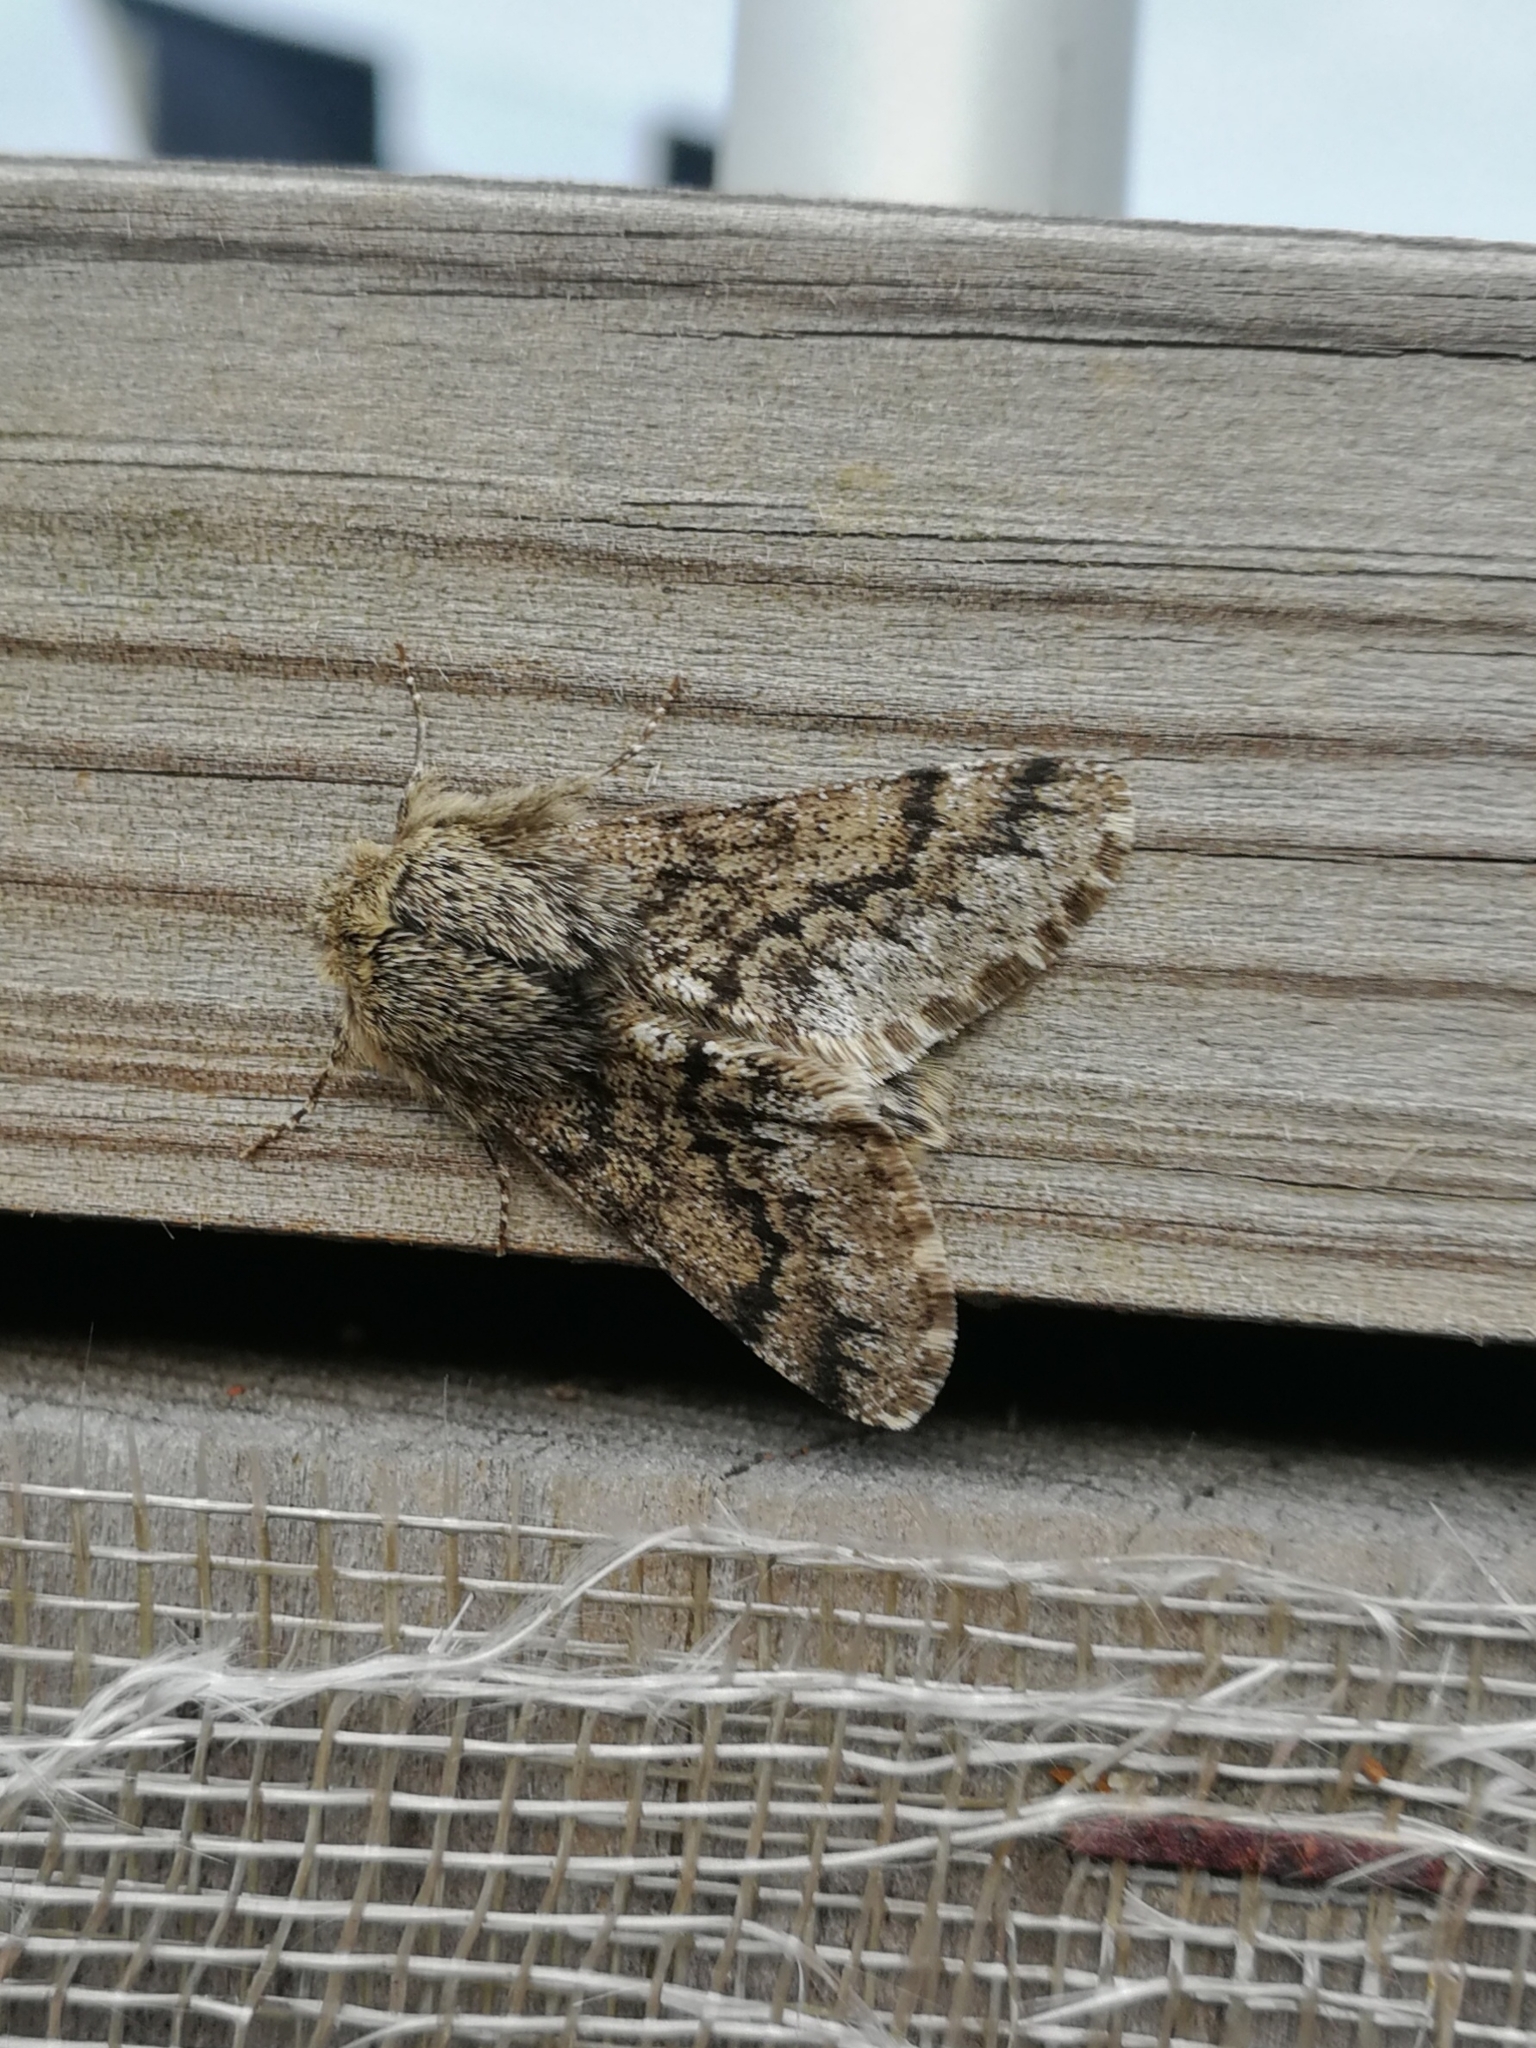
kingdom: Animalia
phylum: Arthropoda
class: Insecta
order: Lepidoptera
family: Geometridae
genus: Apocheima
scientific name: Apocheima hispidaria
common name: Small brindled beauty
